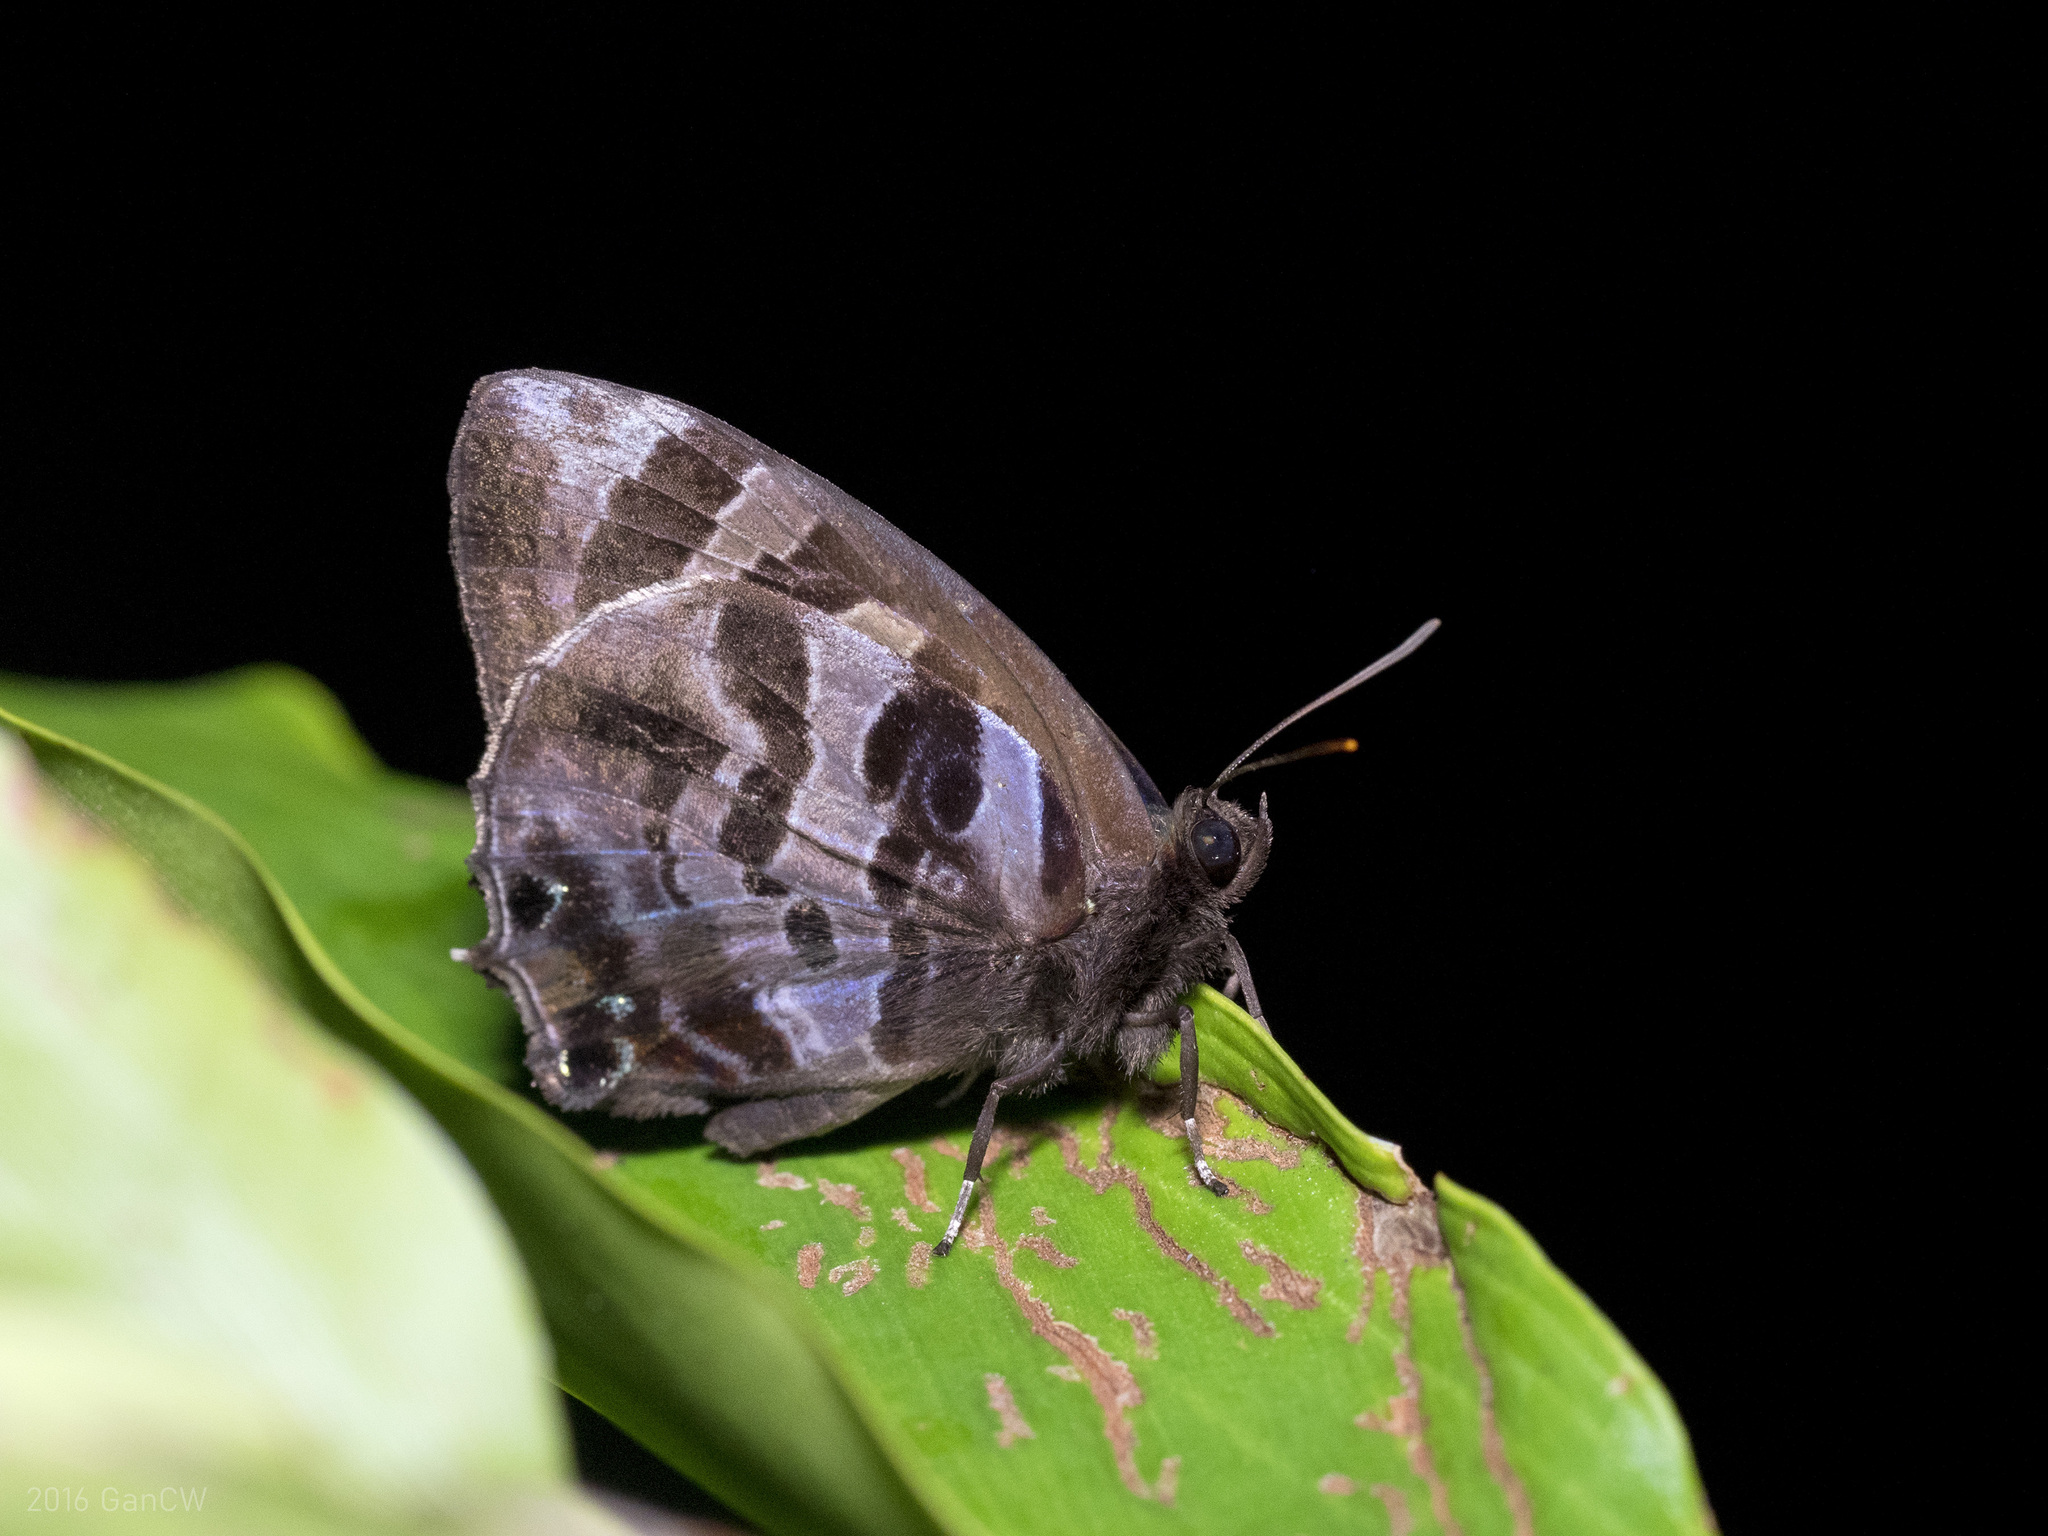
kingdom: Animalia
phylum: Arthropoda
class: Insecta
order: Lepidoptera
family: Lycaenidae
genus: Flos
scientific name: Flos
